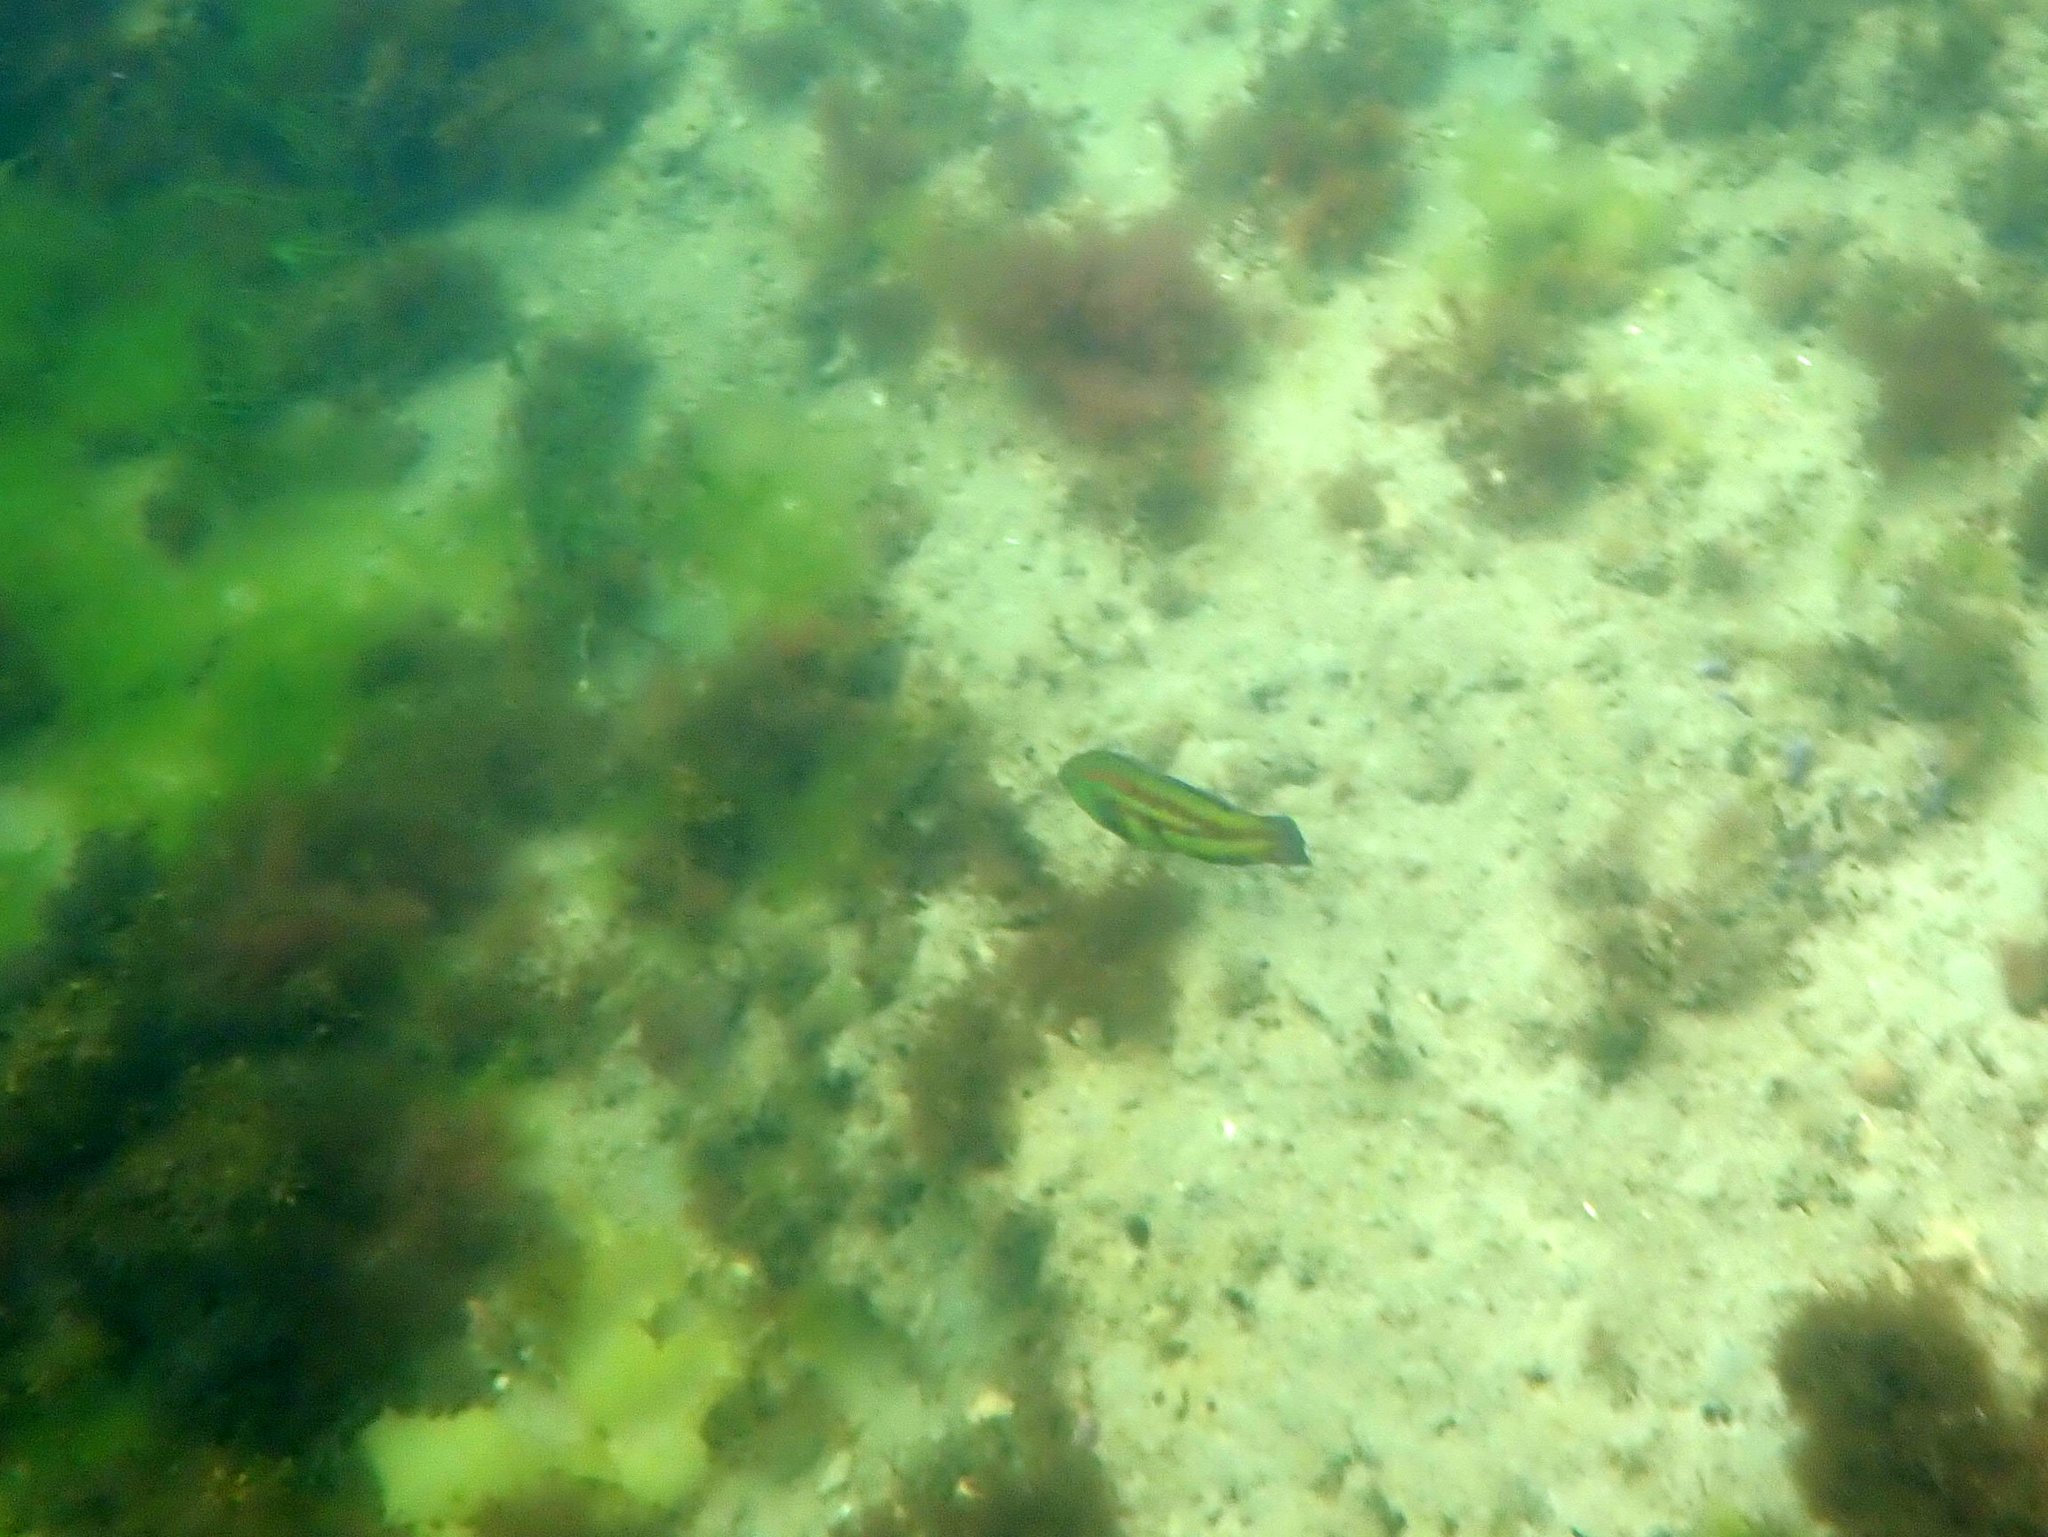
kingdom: Animalia
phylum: Chordata
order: Perciformes
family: Labridae
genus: Pictilabrus
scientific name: Pictilabrus laticlavius
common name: Patrician wrasse
